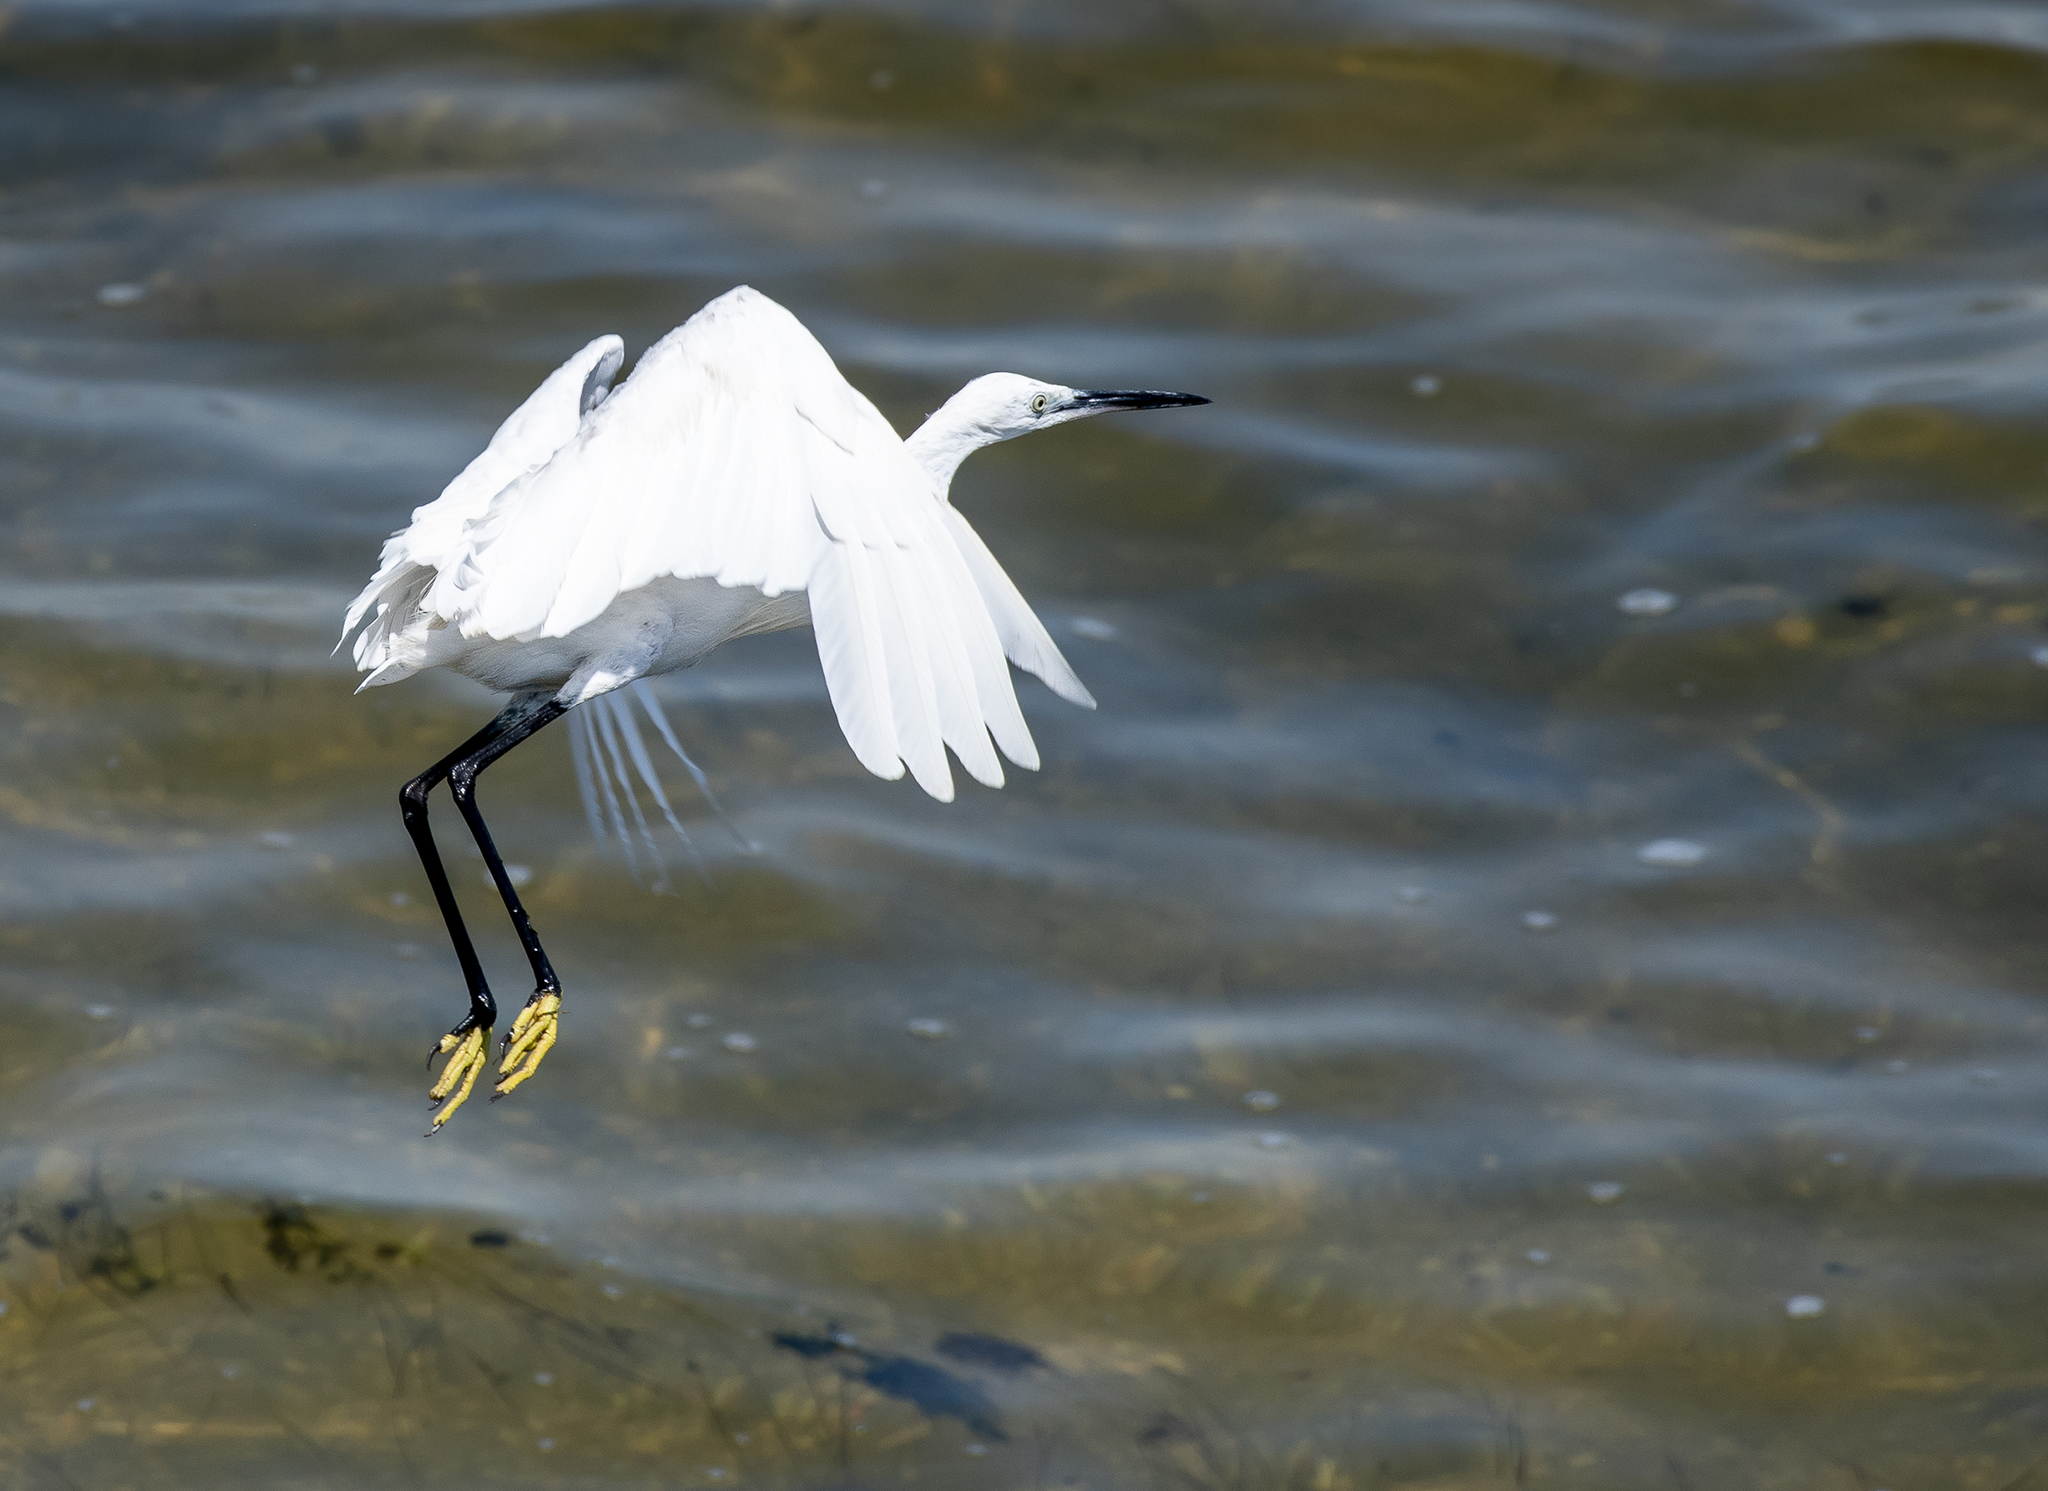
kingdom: Animalia
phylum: Chordata
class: Aves
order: Pelecaniformes
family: Ardeidae
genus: Egretta
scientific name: Egretta garzetta
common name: Little egret
